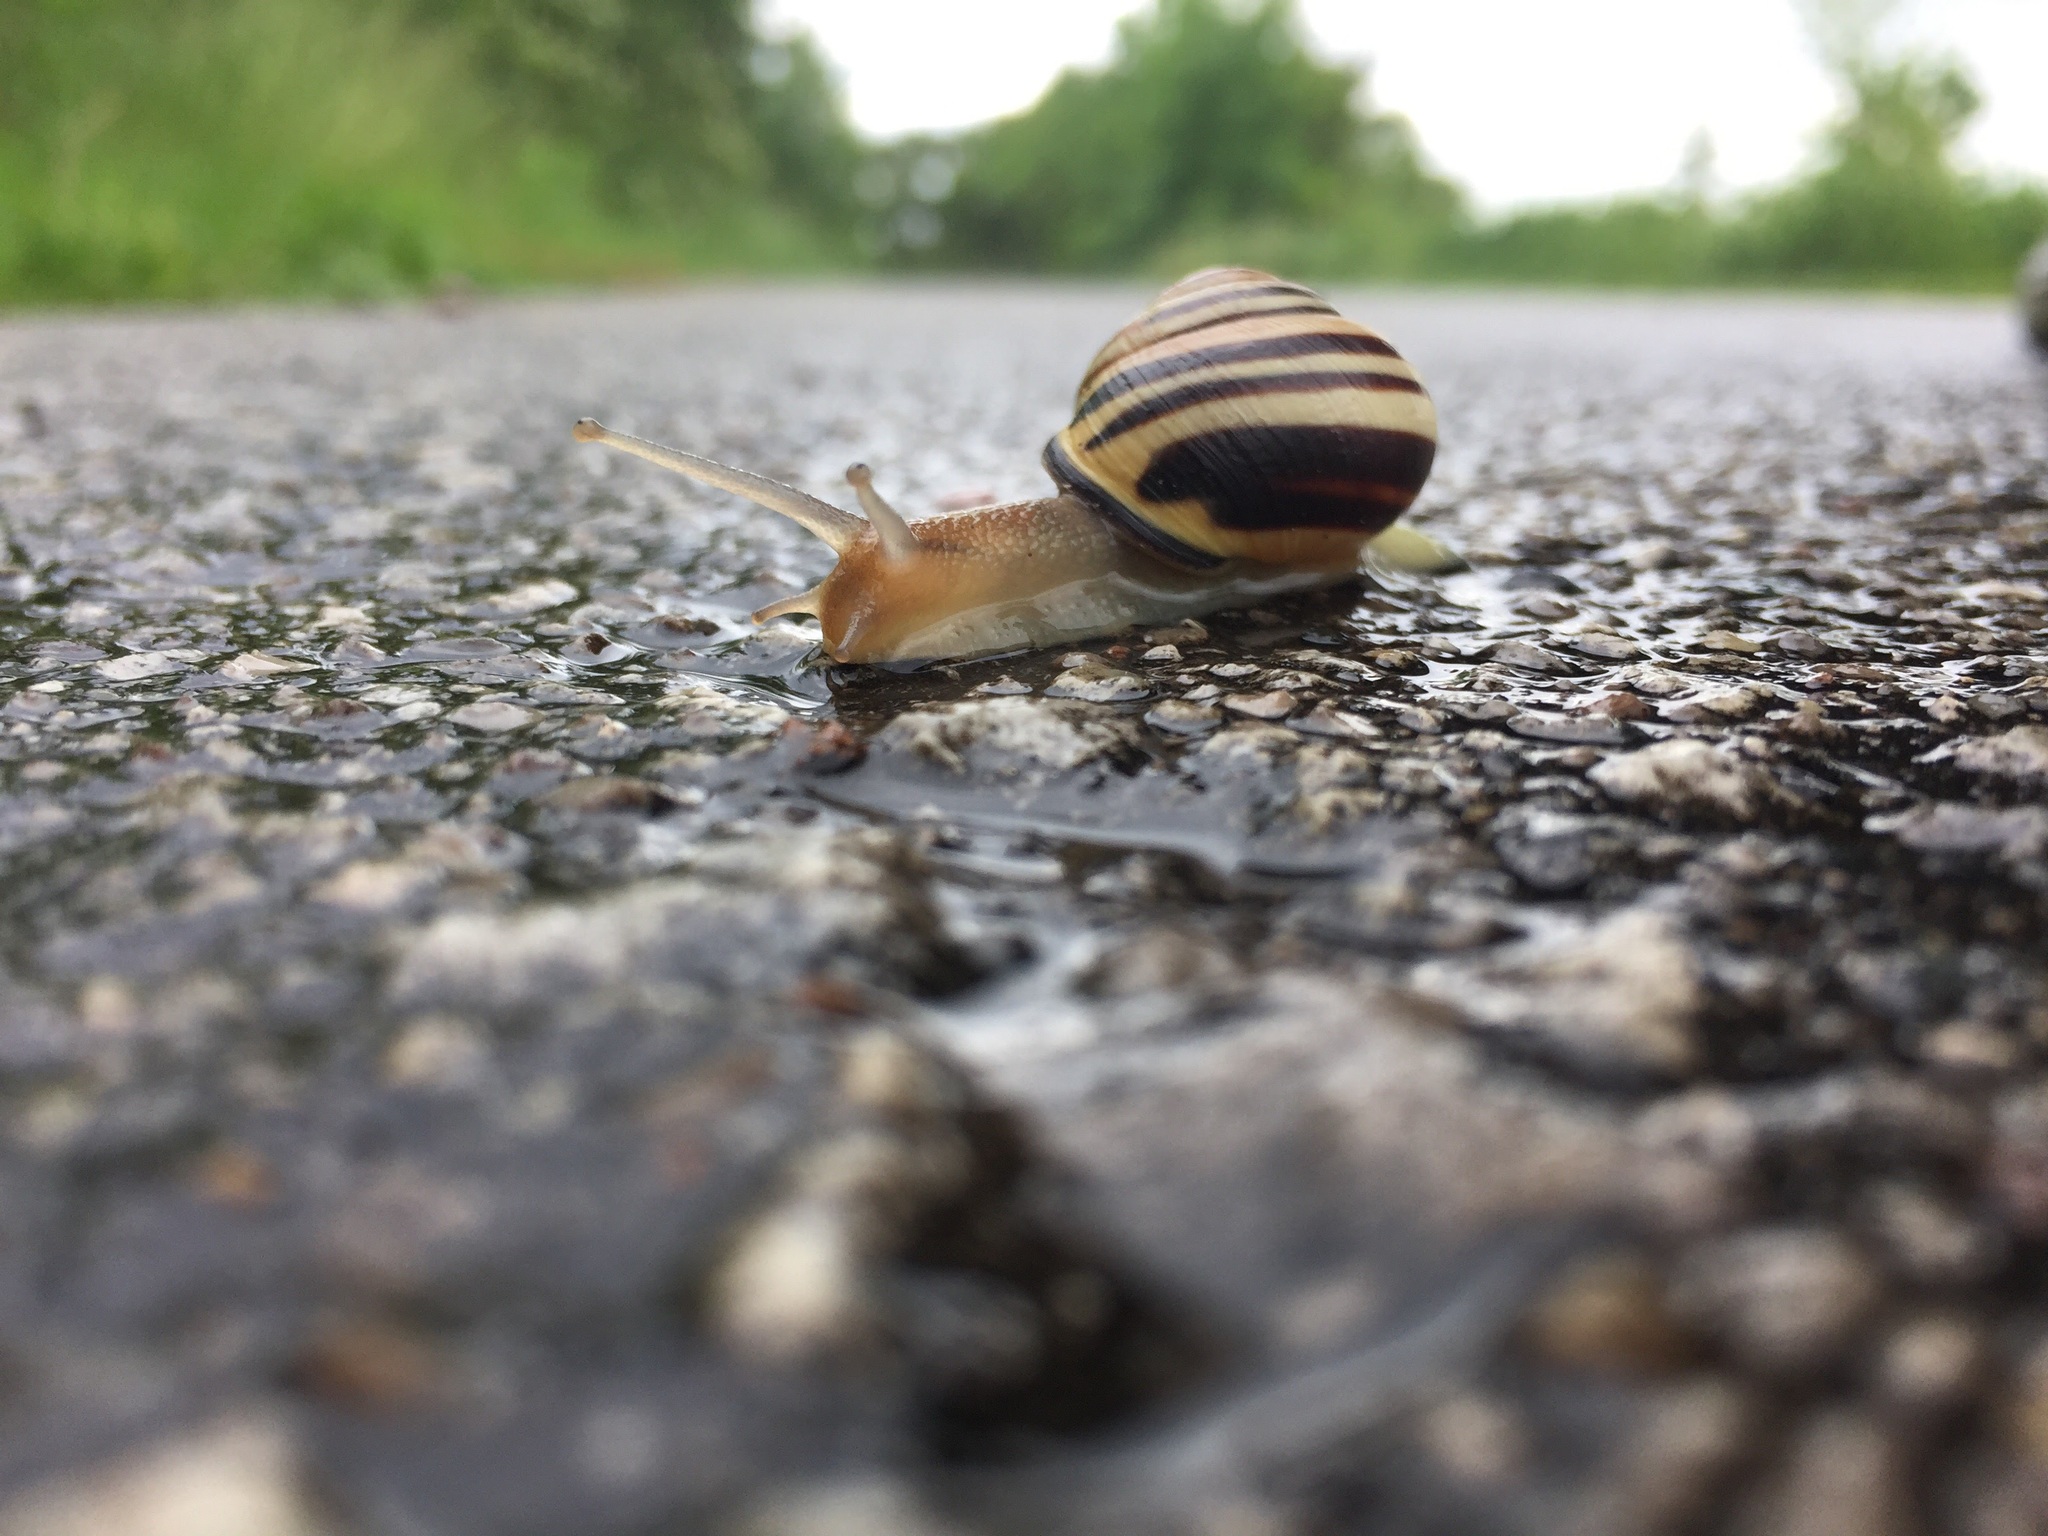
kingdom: Animalia
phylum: Mollusca
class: Gastropoda
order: Stylommatophora
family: Helicidae
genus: Cepaea
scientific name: Cepaea nemoralis
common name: Grovesnail
